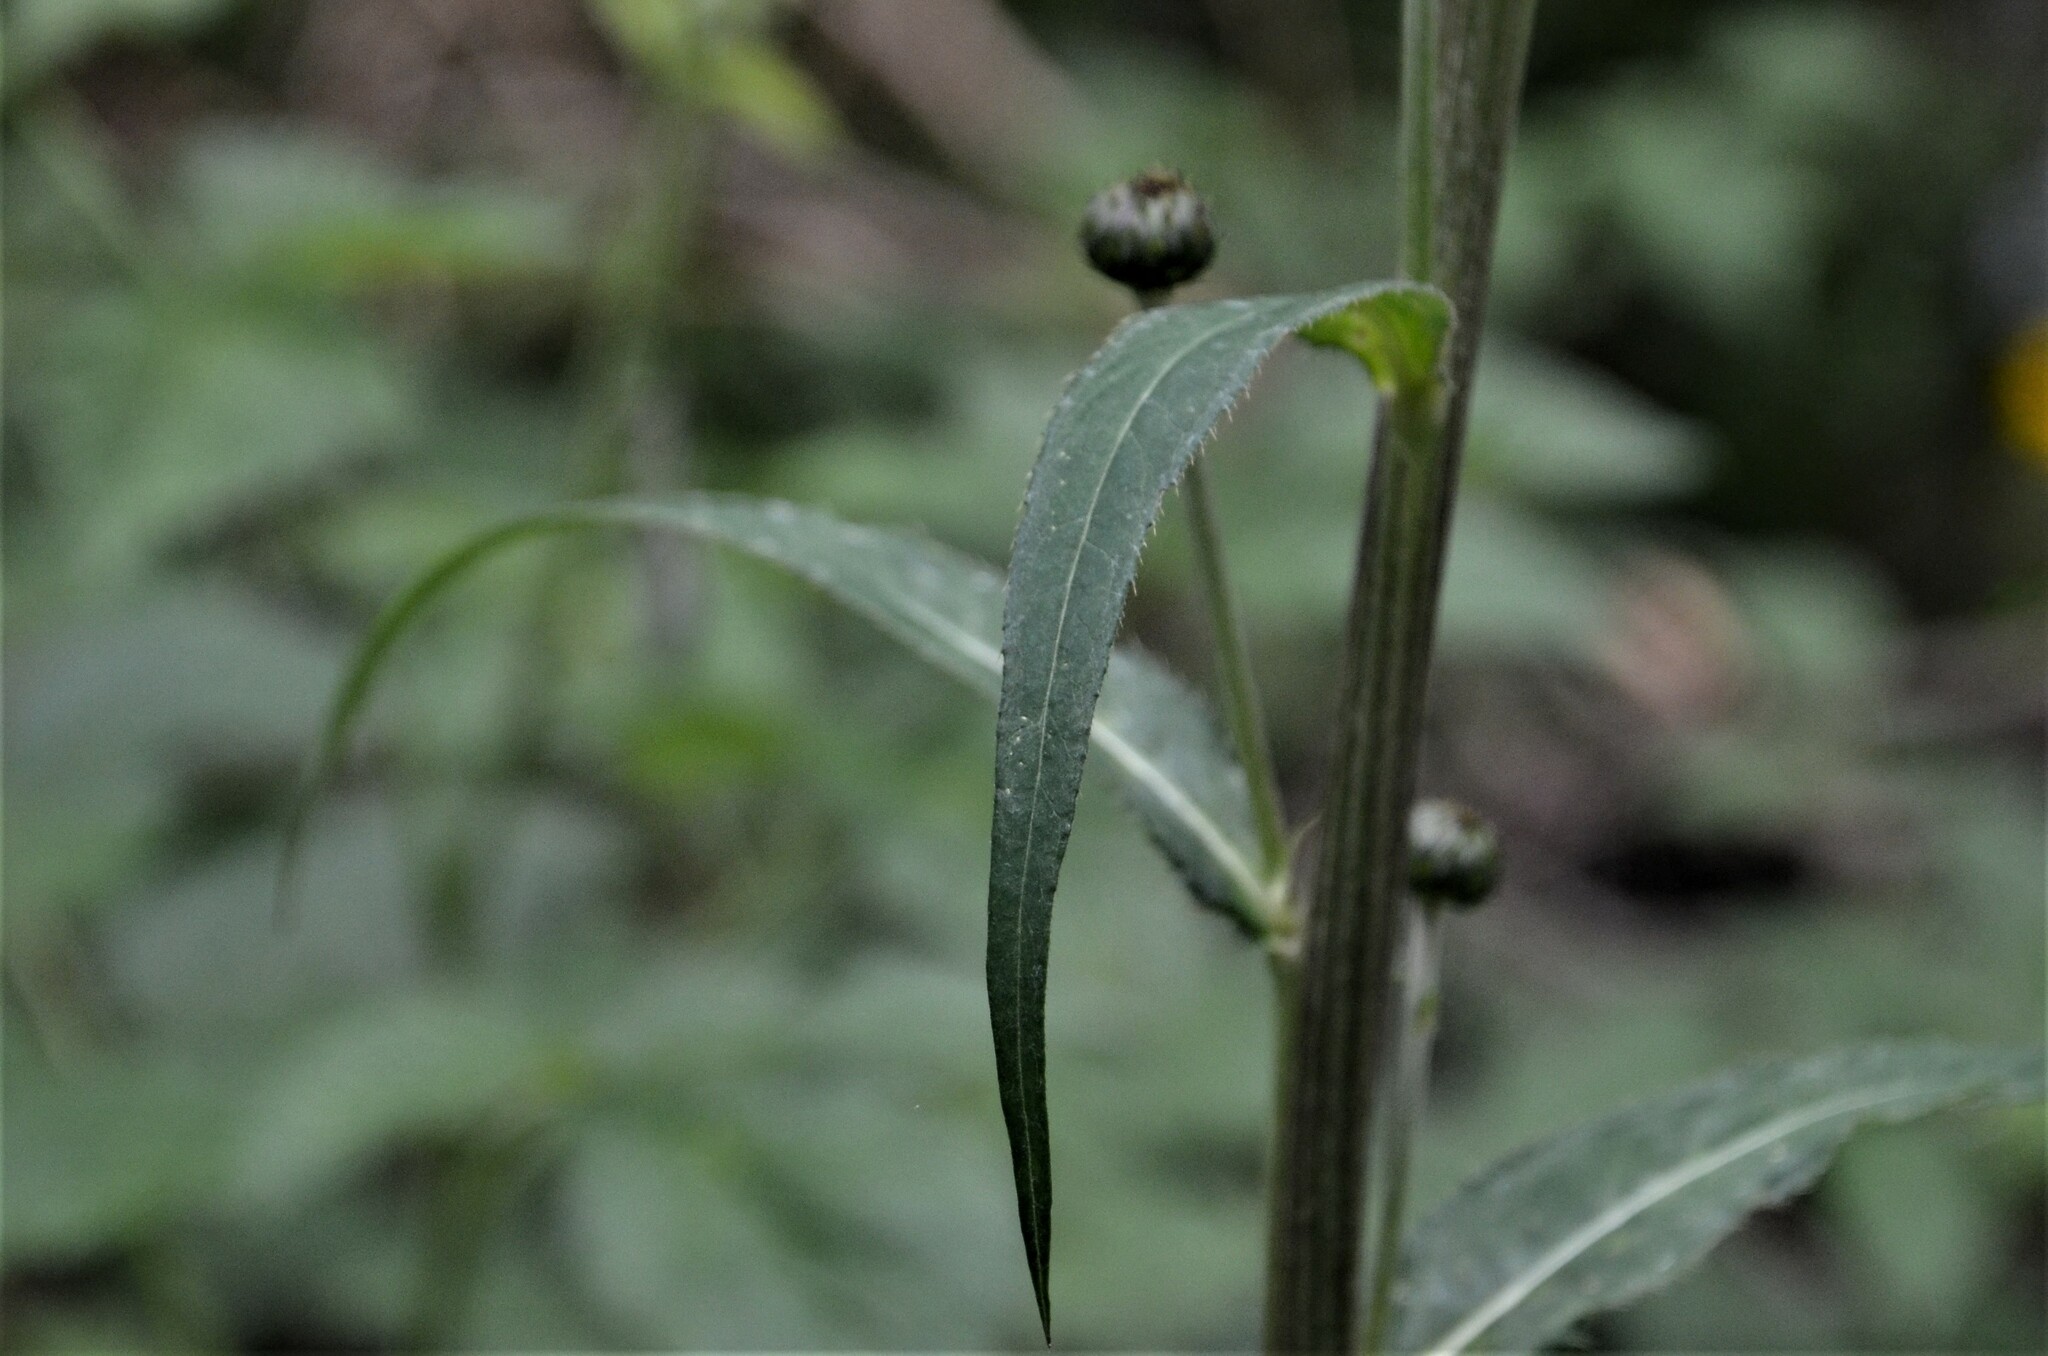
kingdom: Plantae
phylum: Tracheophyta
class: Magnoliopsida
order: Asterales
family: Asteraceae
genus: Cirsium
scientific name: Cirsium heterophyllum
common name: Melancholy thistle
